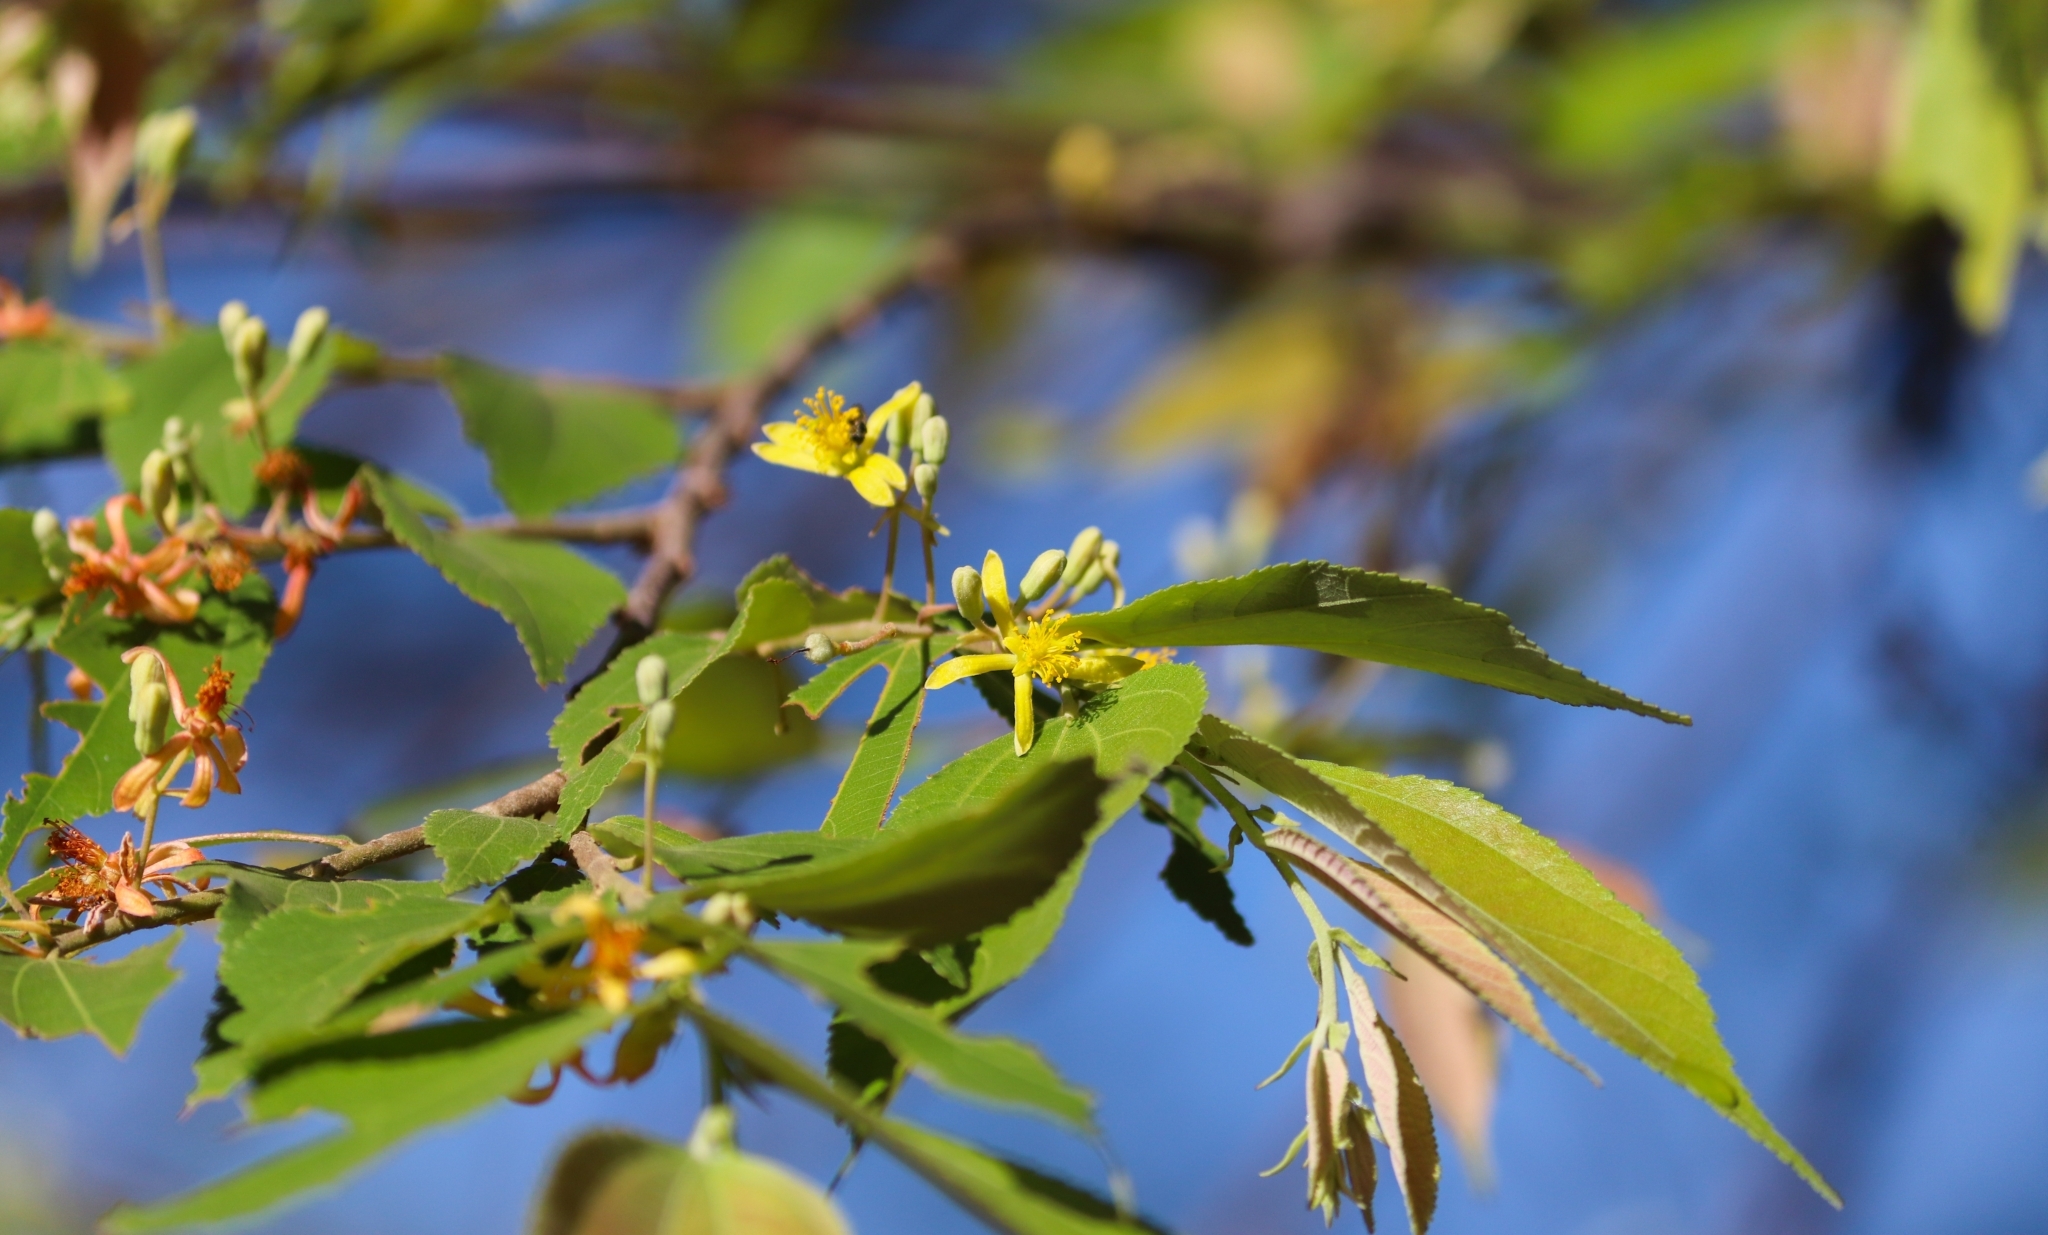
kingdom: Plantae
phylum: Tracheophyta
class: Magnoliopsida
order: Malvales
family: Malvaceae
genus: Grewia
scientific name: Grewia excelsa
